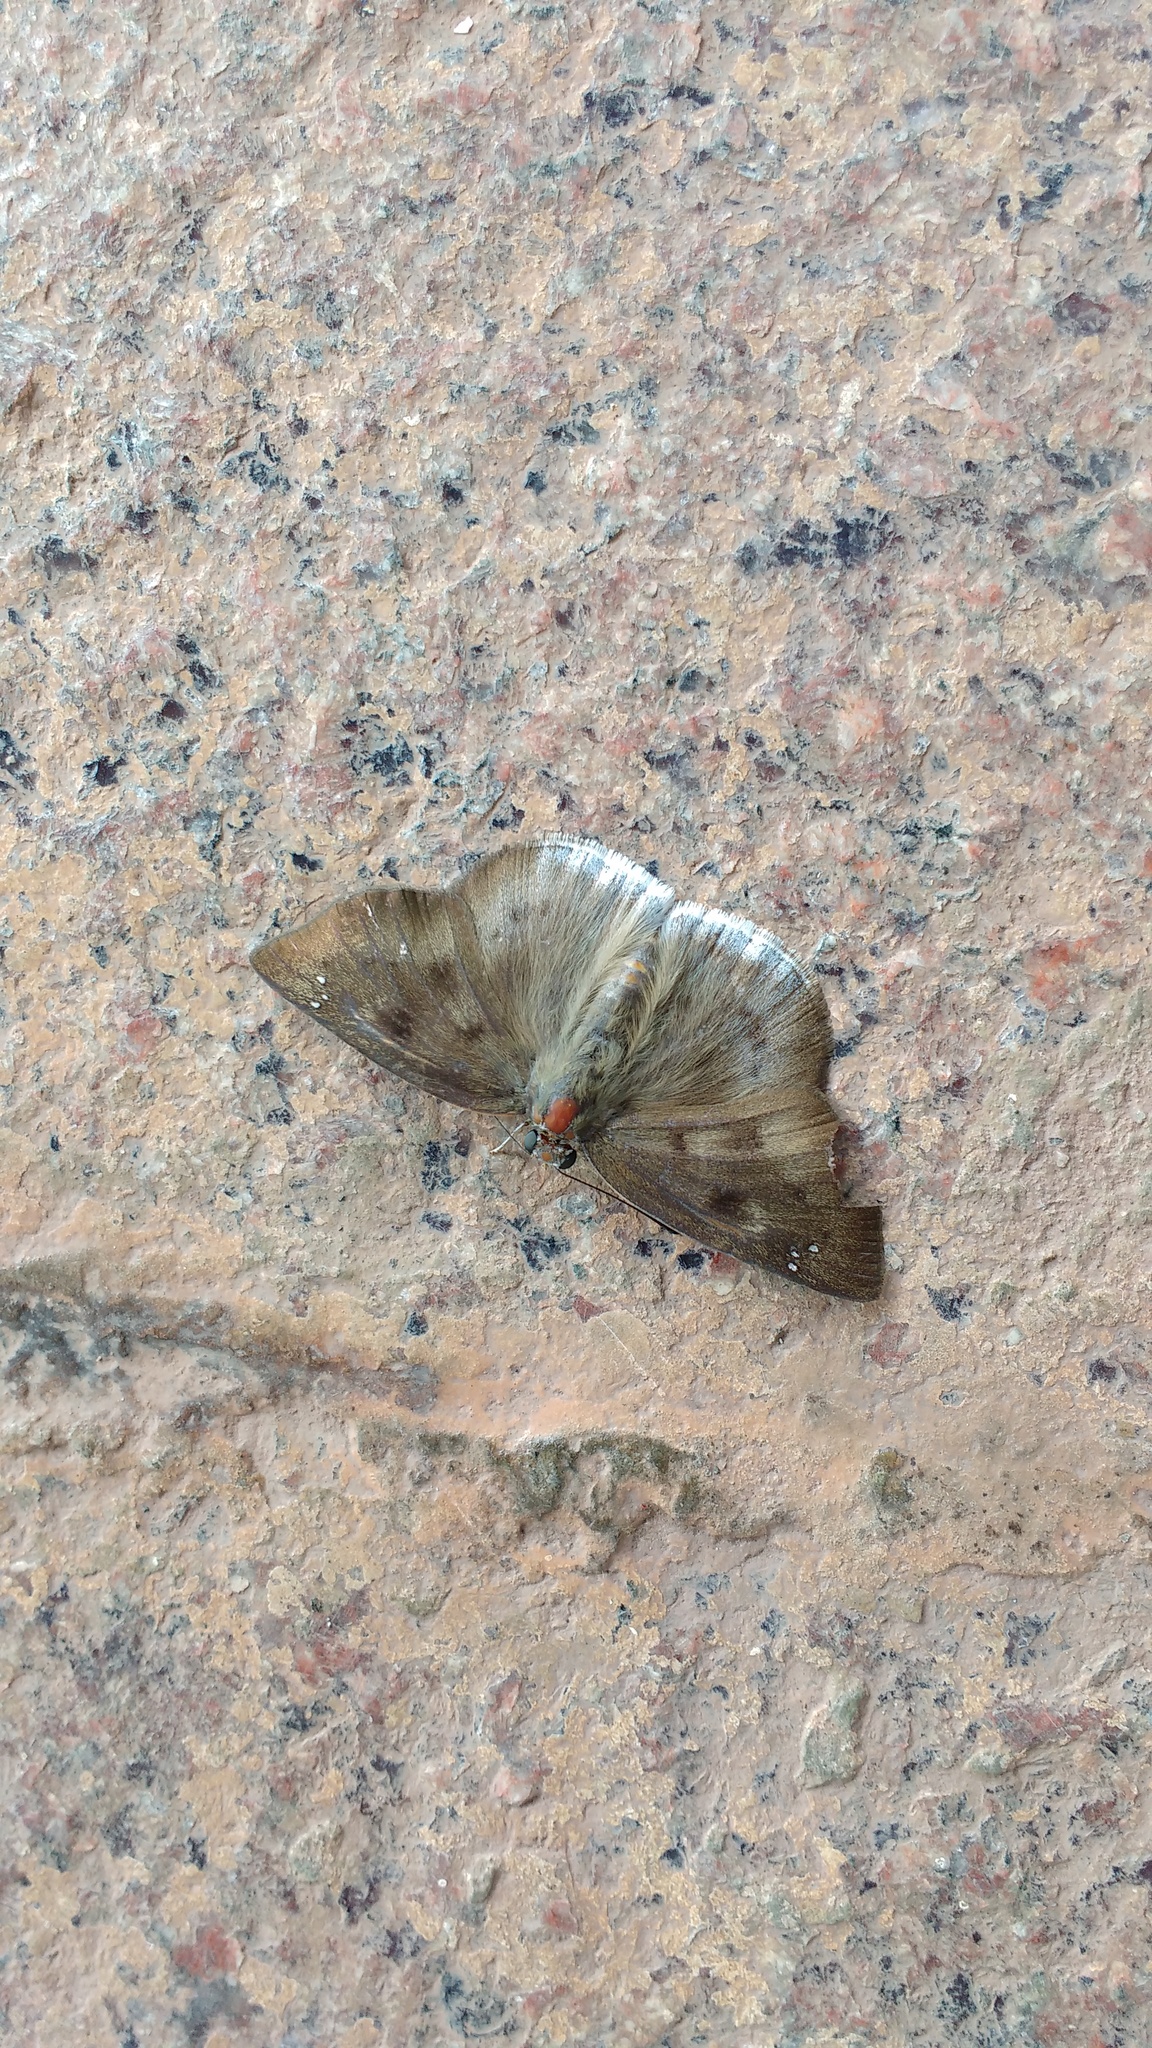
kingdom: Animalia
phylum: Arthropoda
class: Insecta
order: Lepidoptera
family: Hesperiidae
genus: Tagiades
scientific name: Tagiades gana
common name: Suffused snow flat
